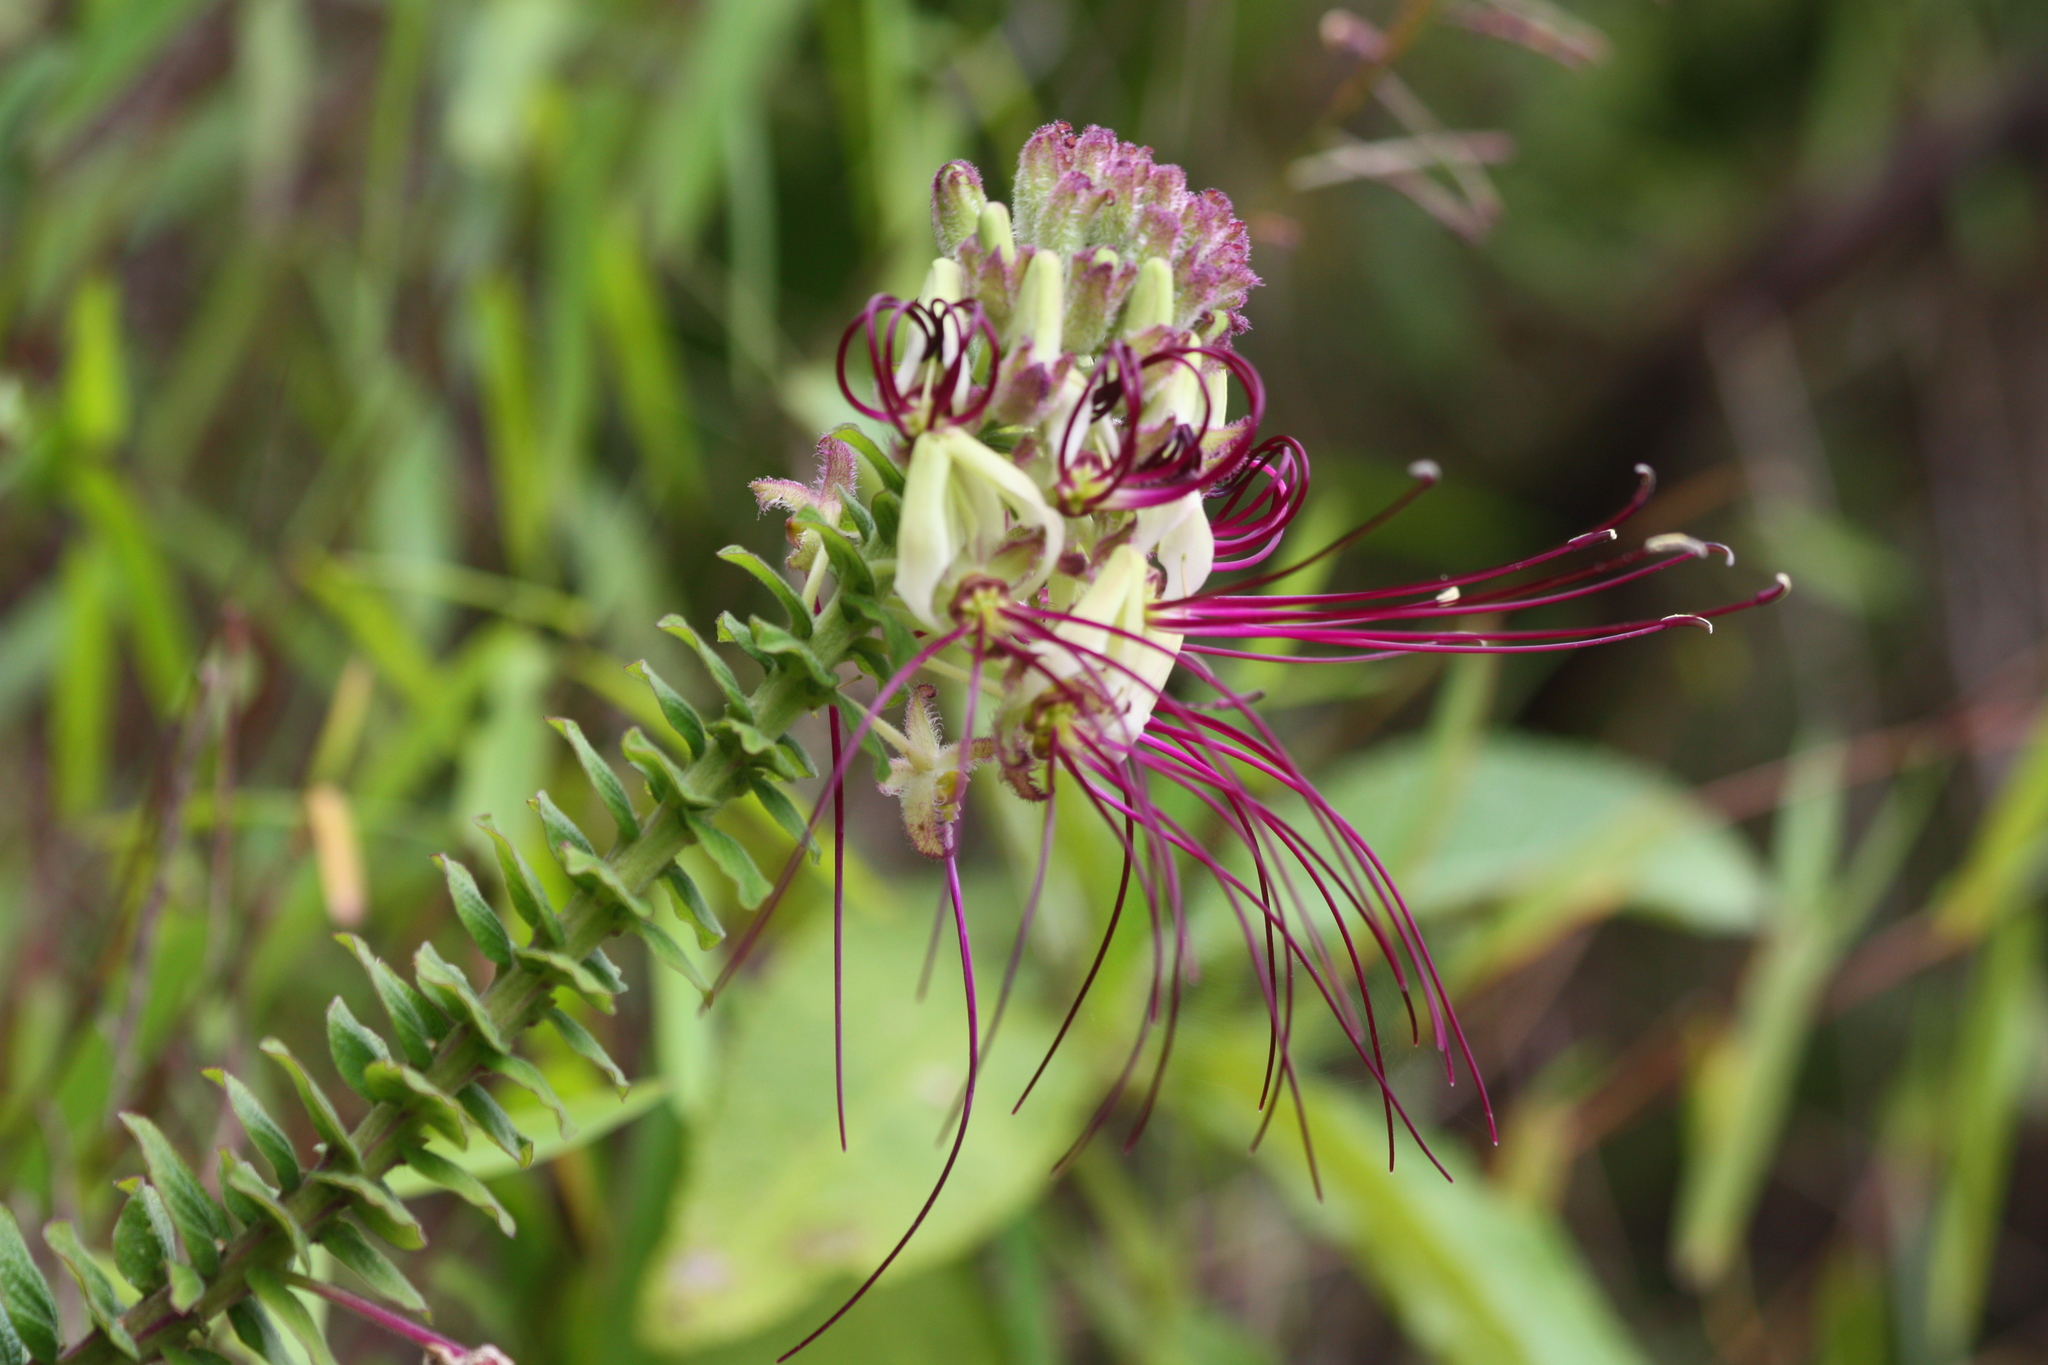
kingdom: Plantae
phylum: Tracheophyta
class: Magnoliopsida
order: Brassicales
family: Cleomaceae
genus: Andinocleome
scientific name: Andinocleome lechleri
